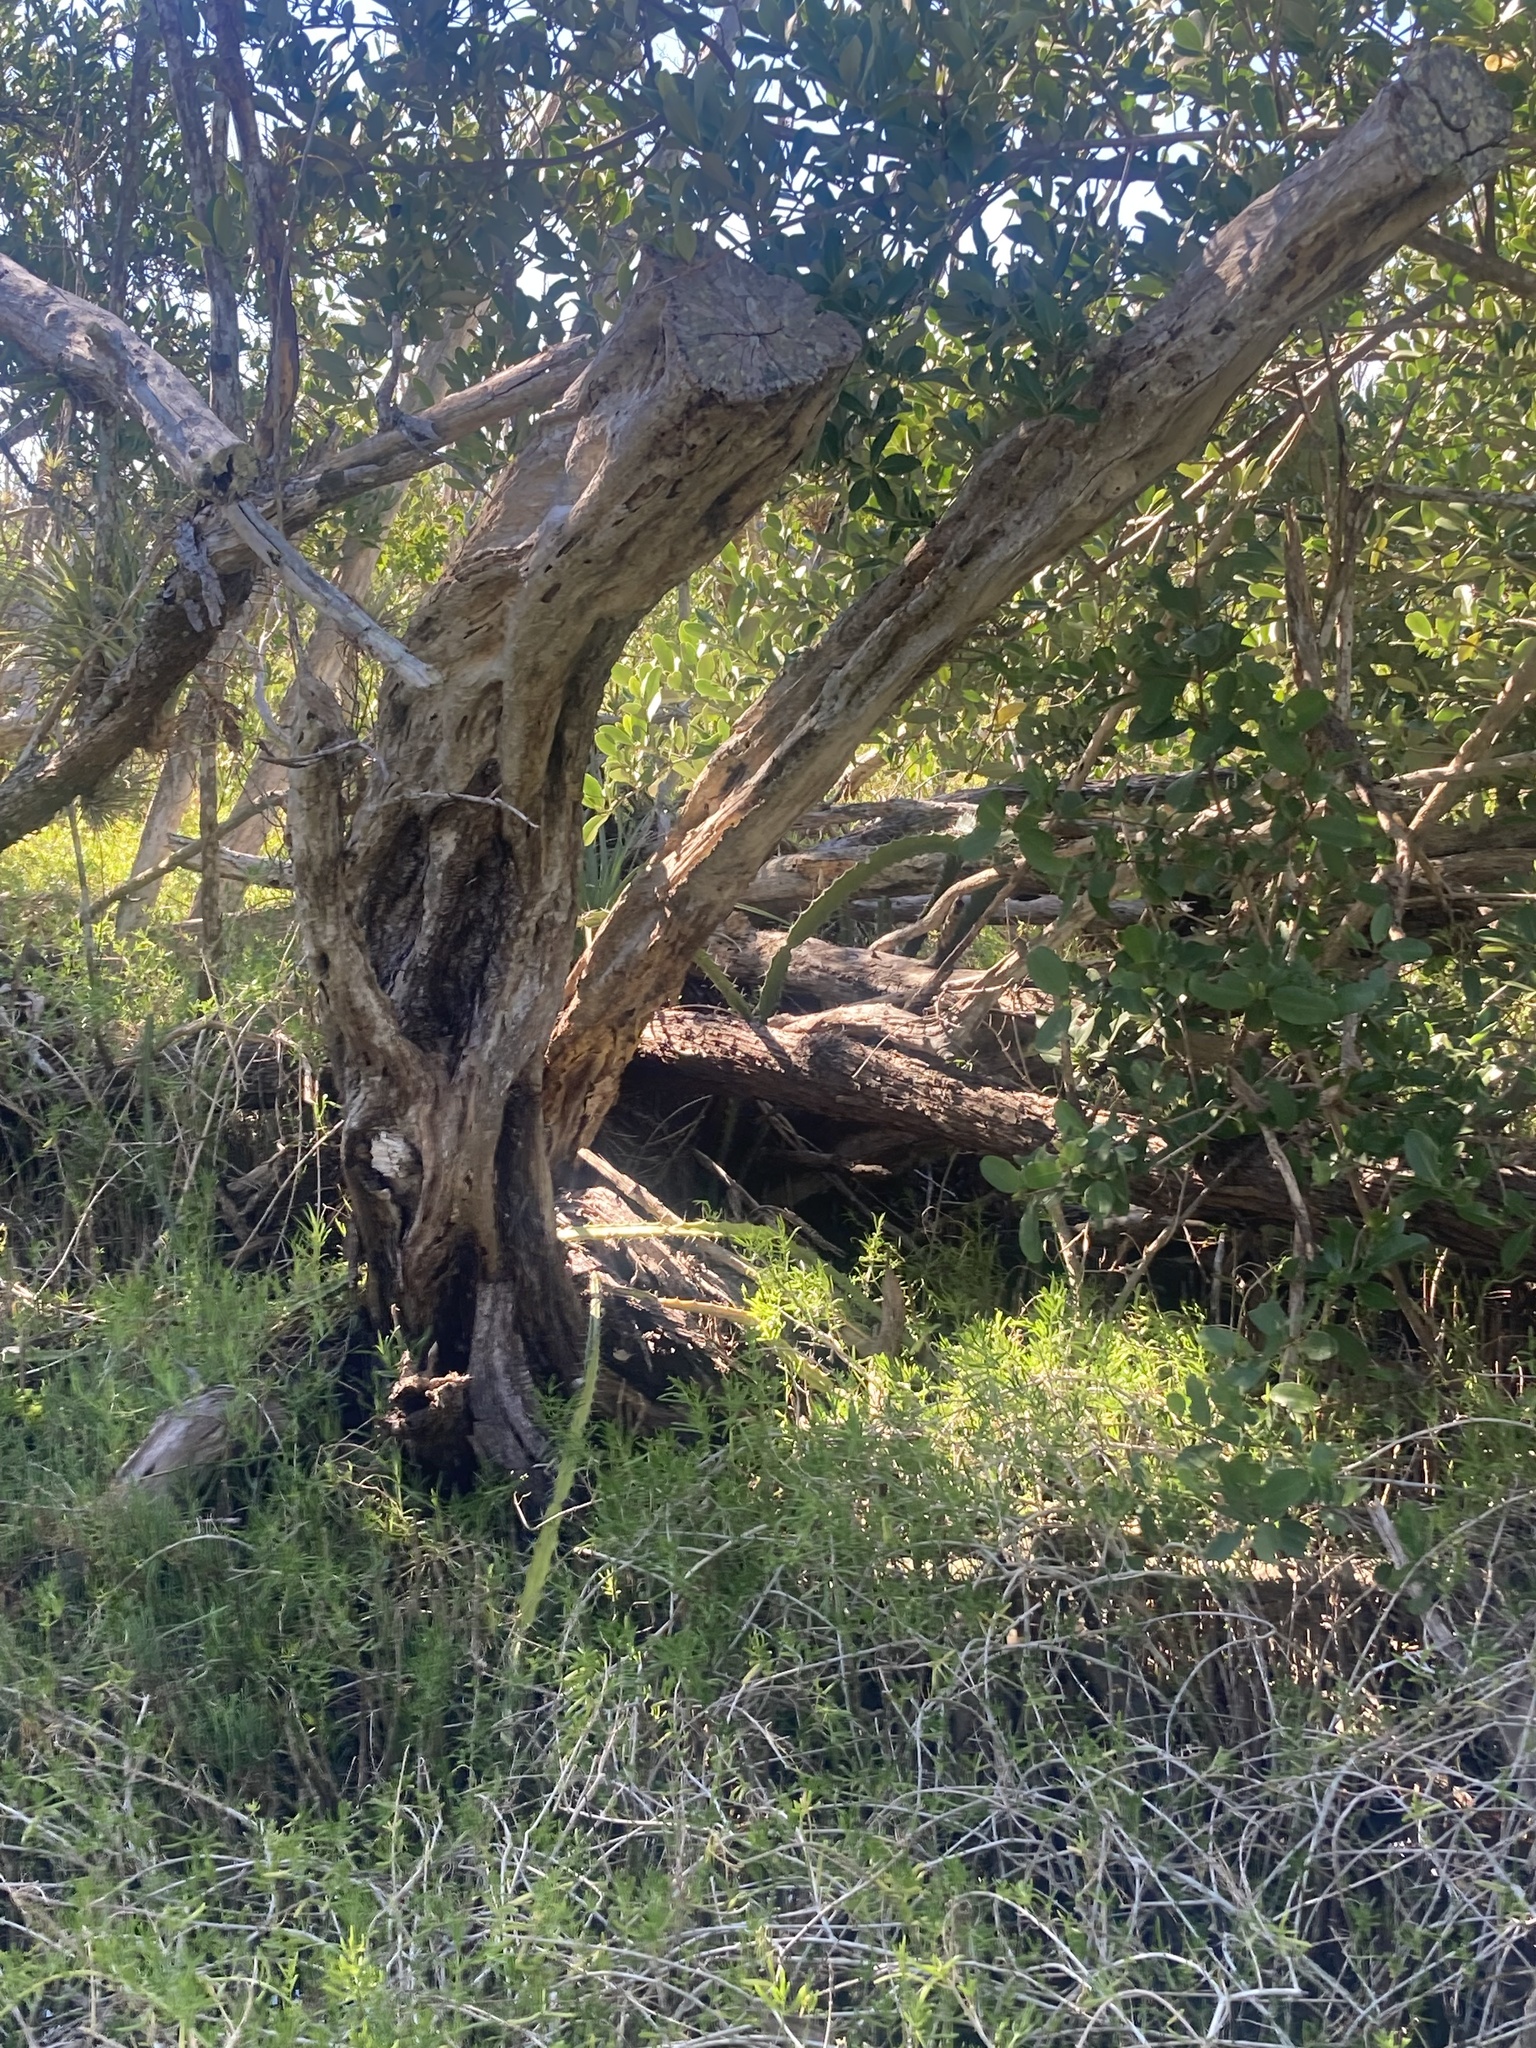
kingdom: Plantae
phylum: Tracheophyta
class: Magnoliopsida
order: Caryophyllales
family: Cactaceae
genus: Acanthocereus
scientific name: Acanthocereus tetragonus
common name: Triangle cactus
